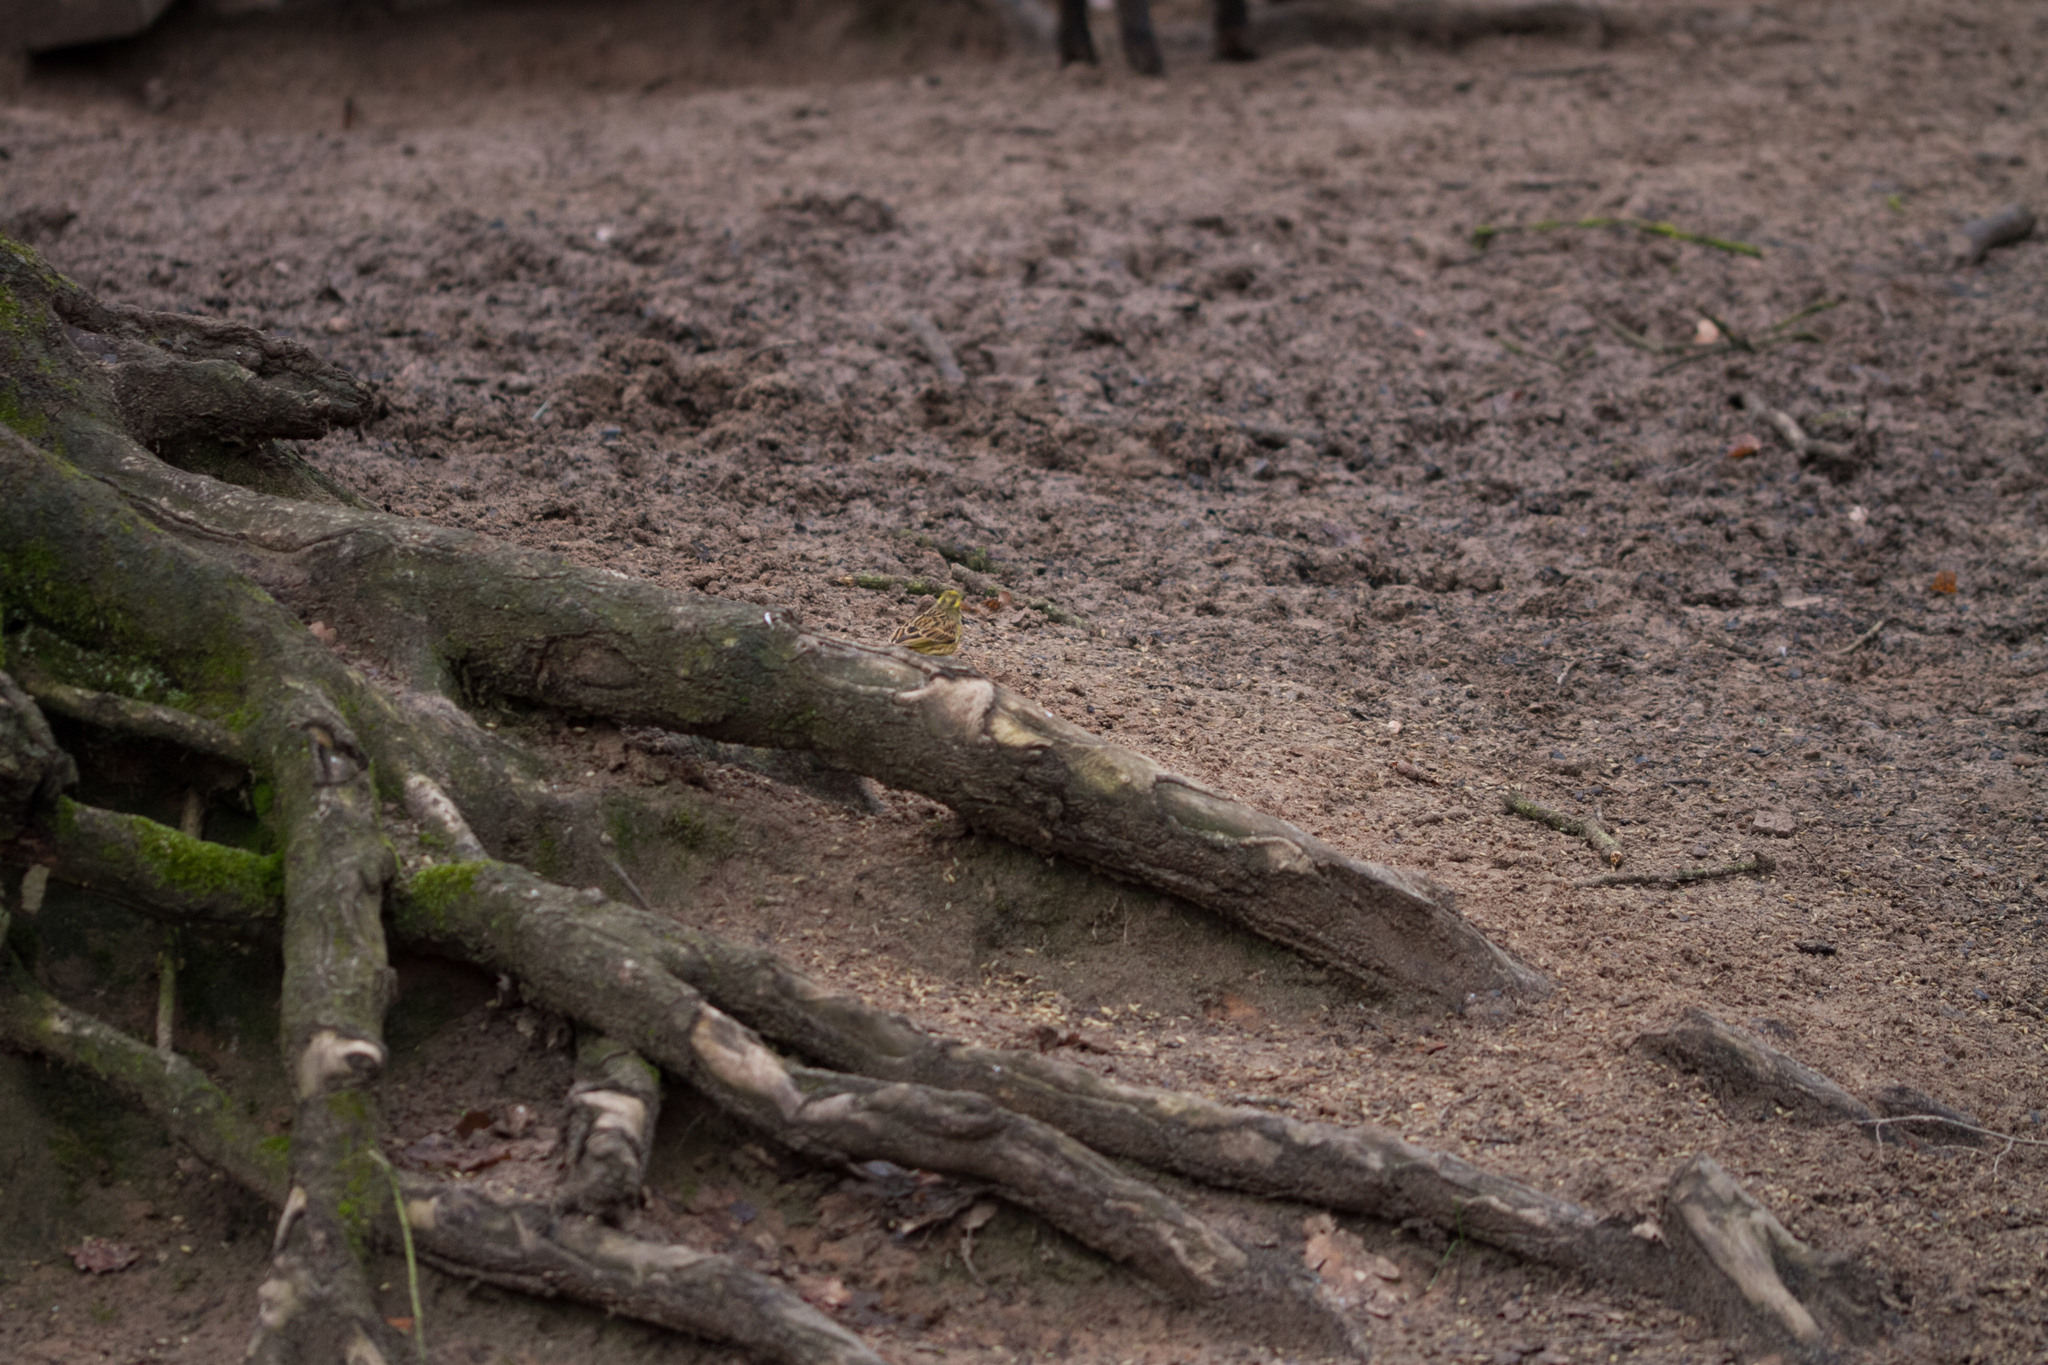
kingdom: Animalia
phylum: Chordata
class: Aves
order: Passeriformes
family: Emberizidae
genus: Emberiza
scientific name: Emberiza citrinella
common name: Yellowhammer
